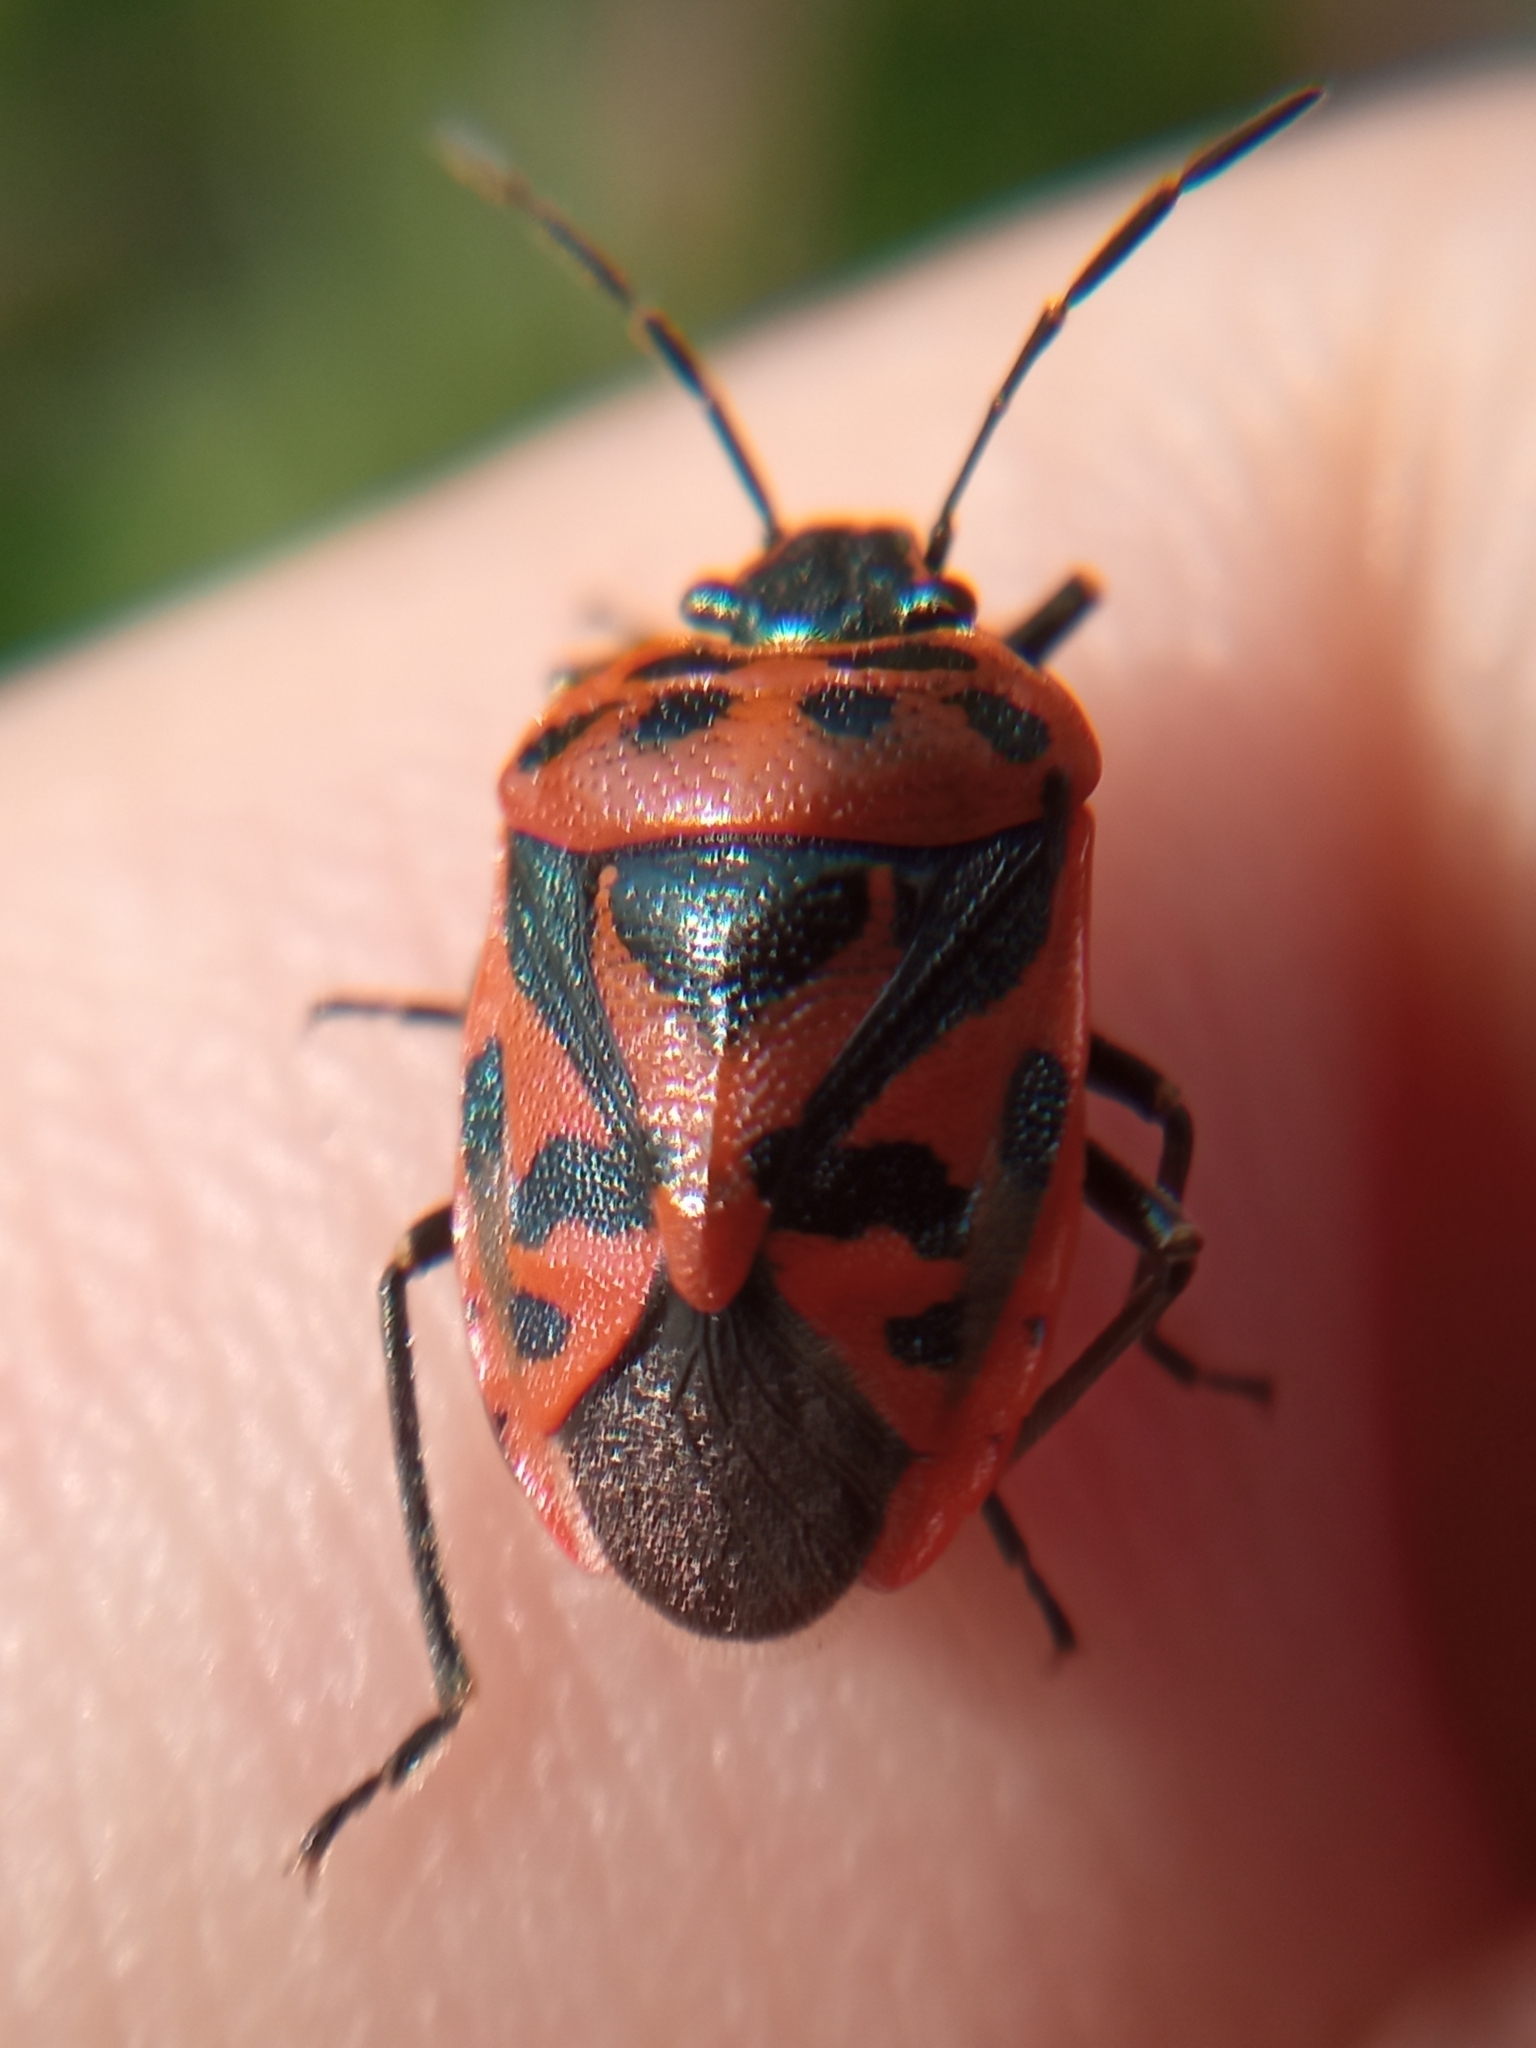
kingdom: Animalia
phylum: Arthropoda
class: Insecta
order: Hemiptera
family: Pentatomidae
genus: Eurydema
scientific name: Eurydema ornata
